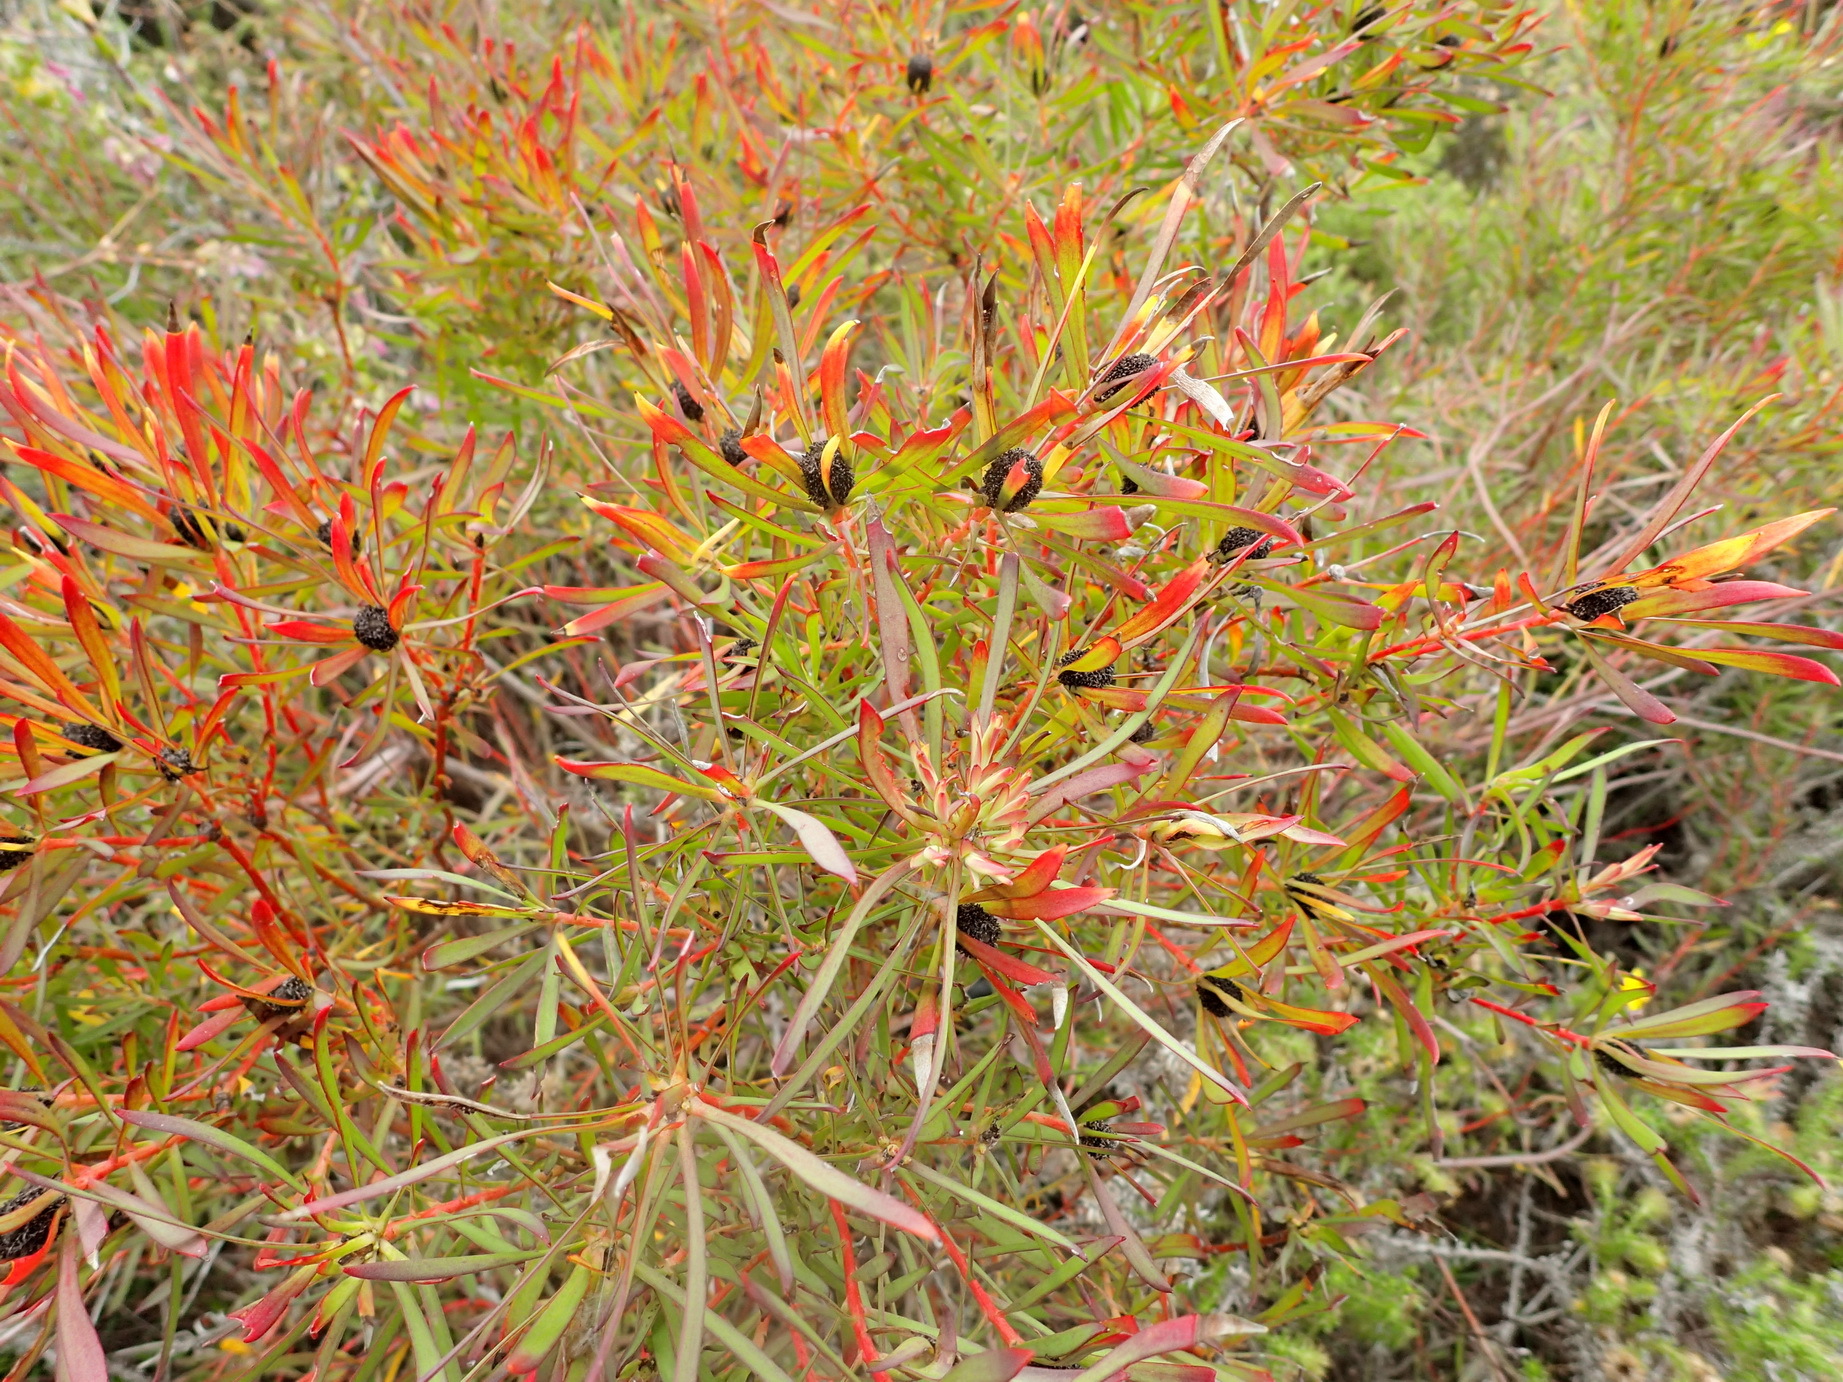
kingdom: Plantae
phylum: Tracheophyta
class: Magnoliopsida
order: Proteales
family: Proteaceae
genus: Leucadendron
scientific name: Leucadendron salignum
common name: Common sunshine conebush
